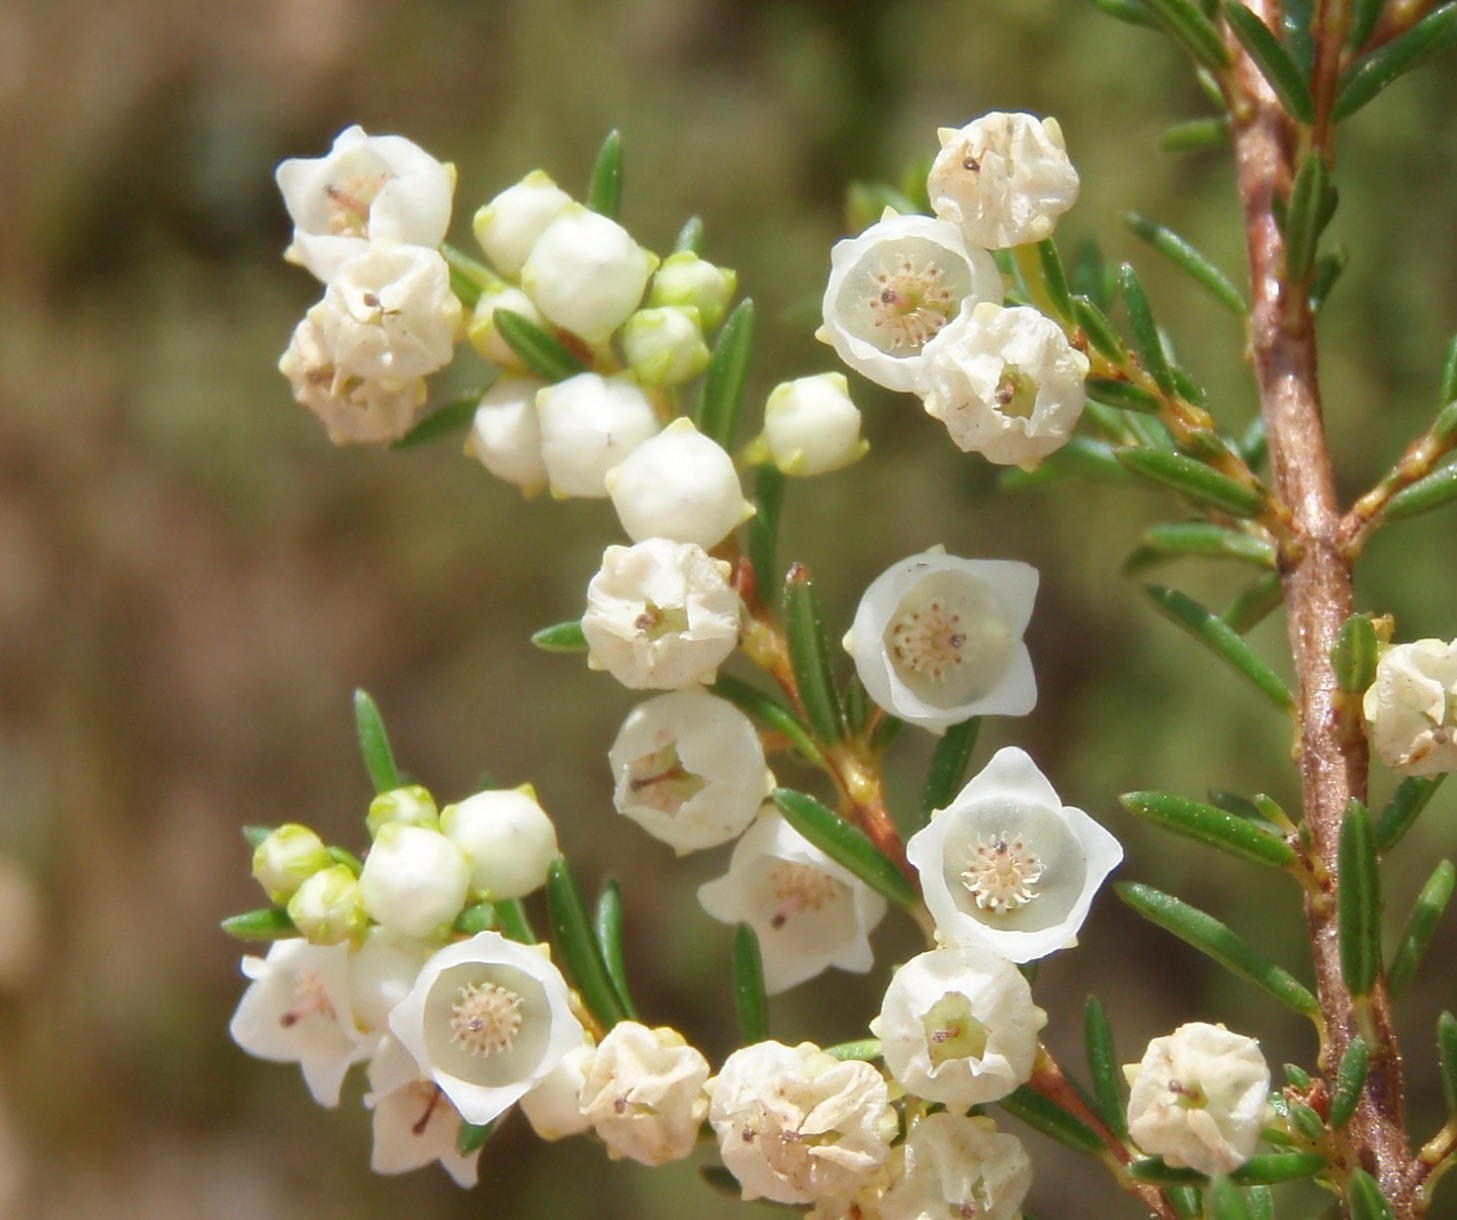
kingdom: Plantae
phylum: Tracheophyta
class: Magnoliopsida
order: Ericales
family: Ericaceae
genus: Erica
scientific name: Erica tenuis
